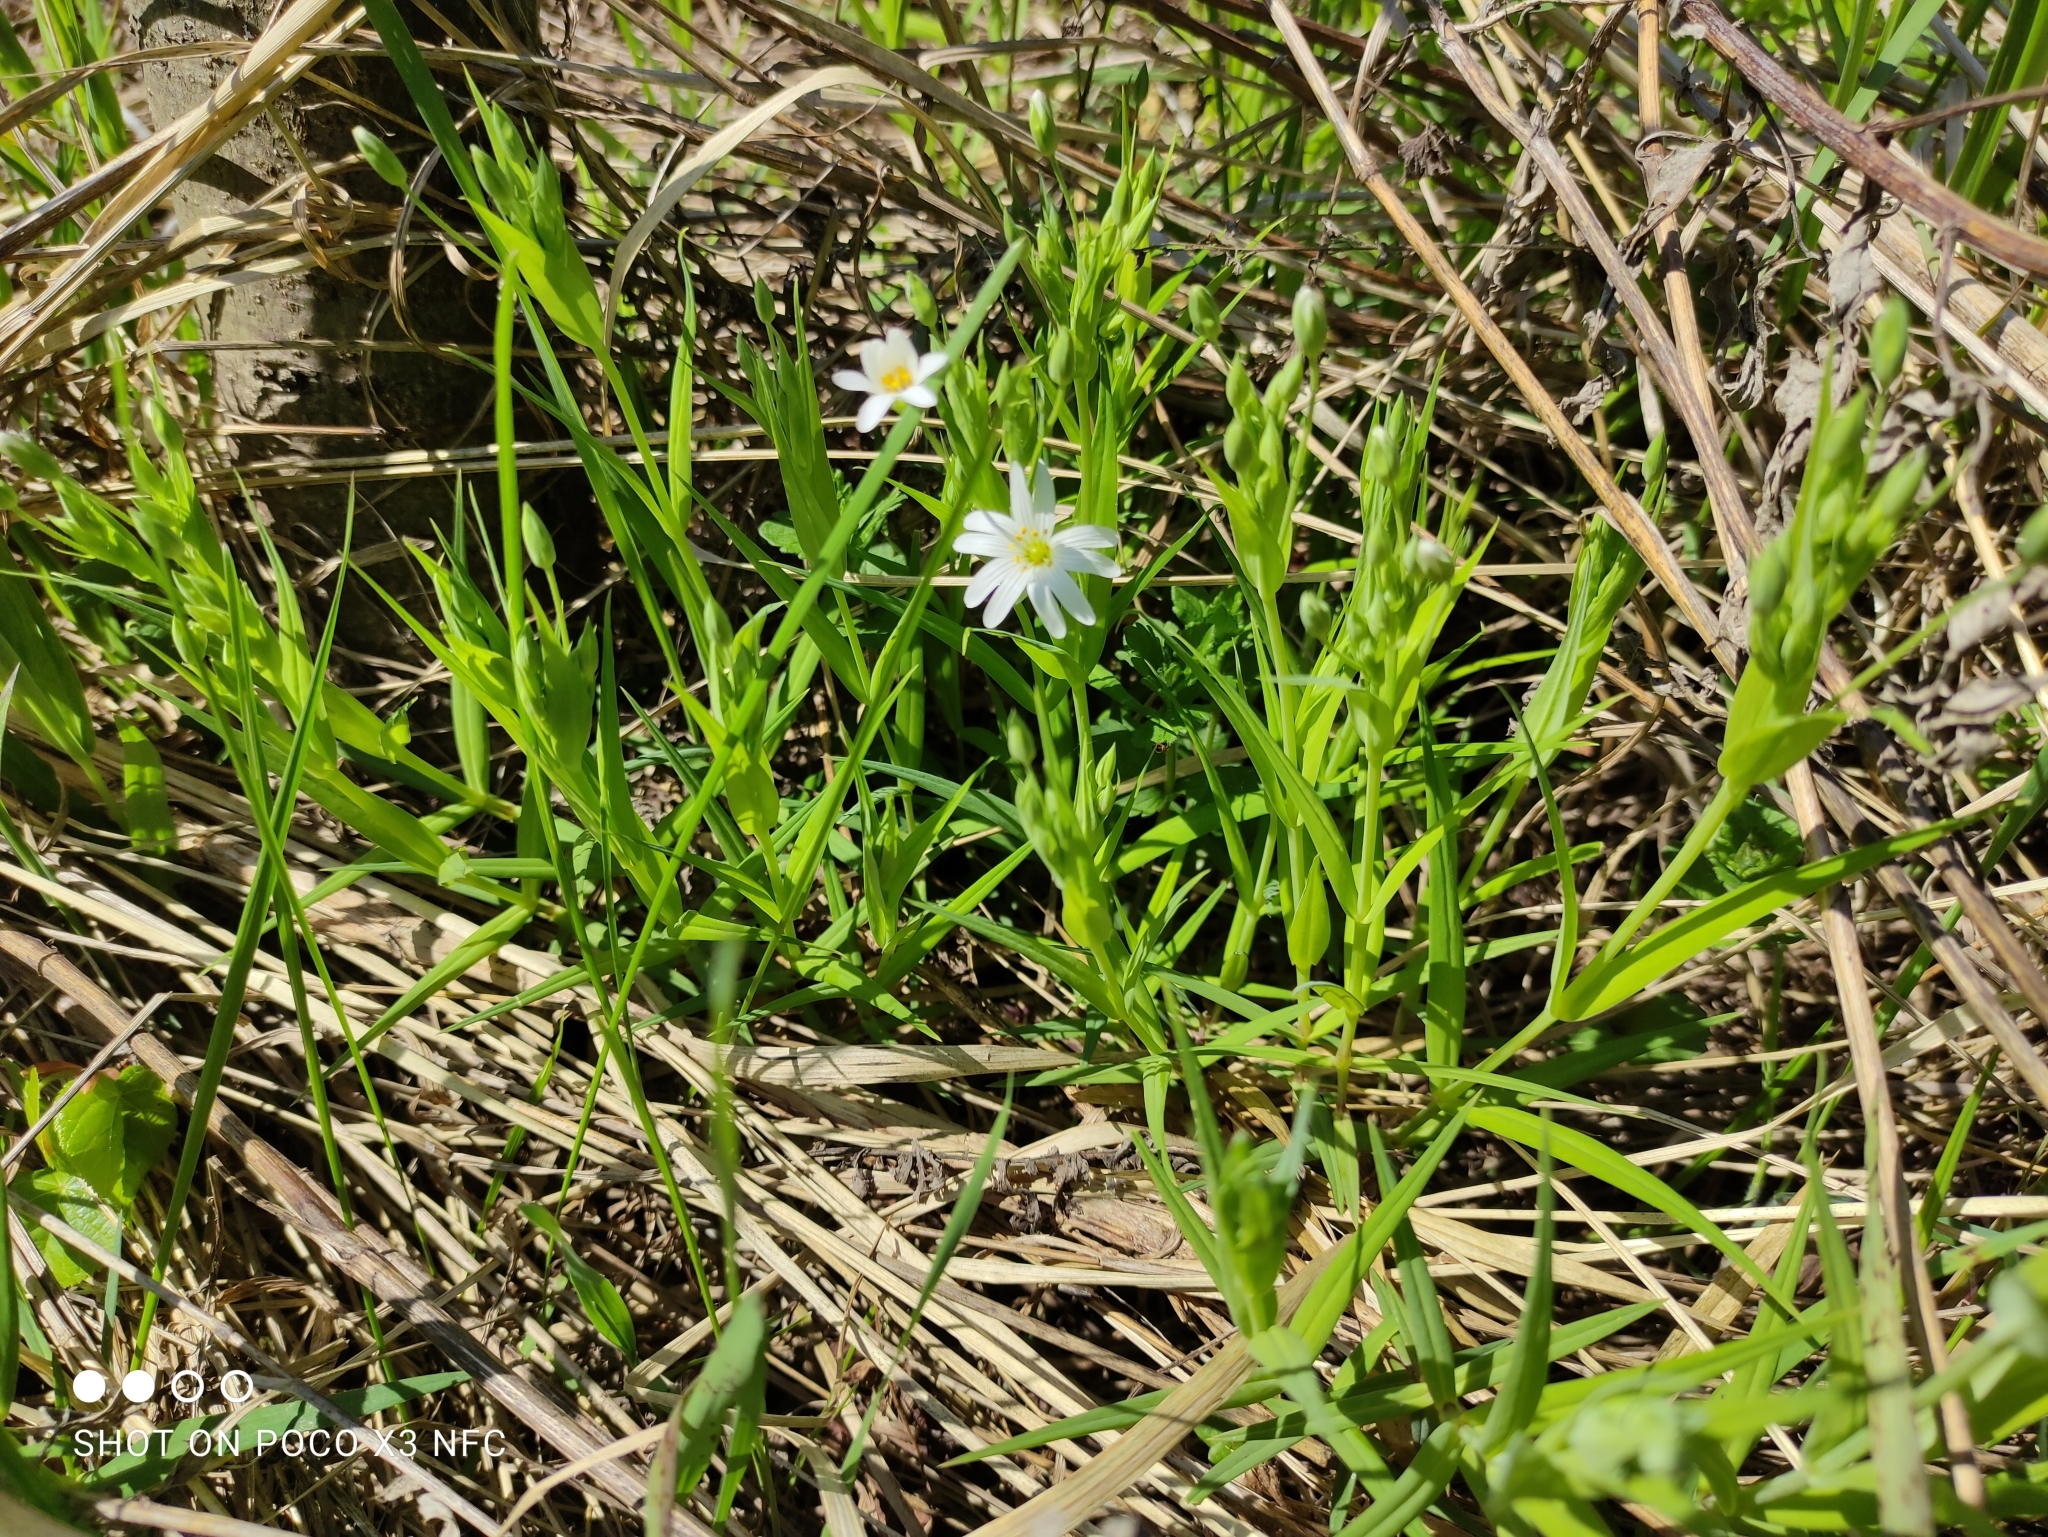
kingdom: Plantae
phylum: Tracheophyta
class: Magnoliopsida
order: Caryophyllales
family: Caryophyllaceae
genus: Rabelera
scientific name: Rabelera holostea
